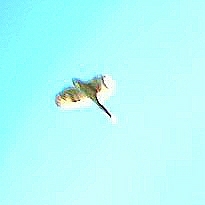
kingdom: Animalia
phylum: Chordata
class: Aves
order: Accipitriformes
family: Accipitridae
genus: Accipiter
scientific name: Accipiter cooperii
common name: Cooper's hawk
